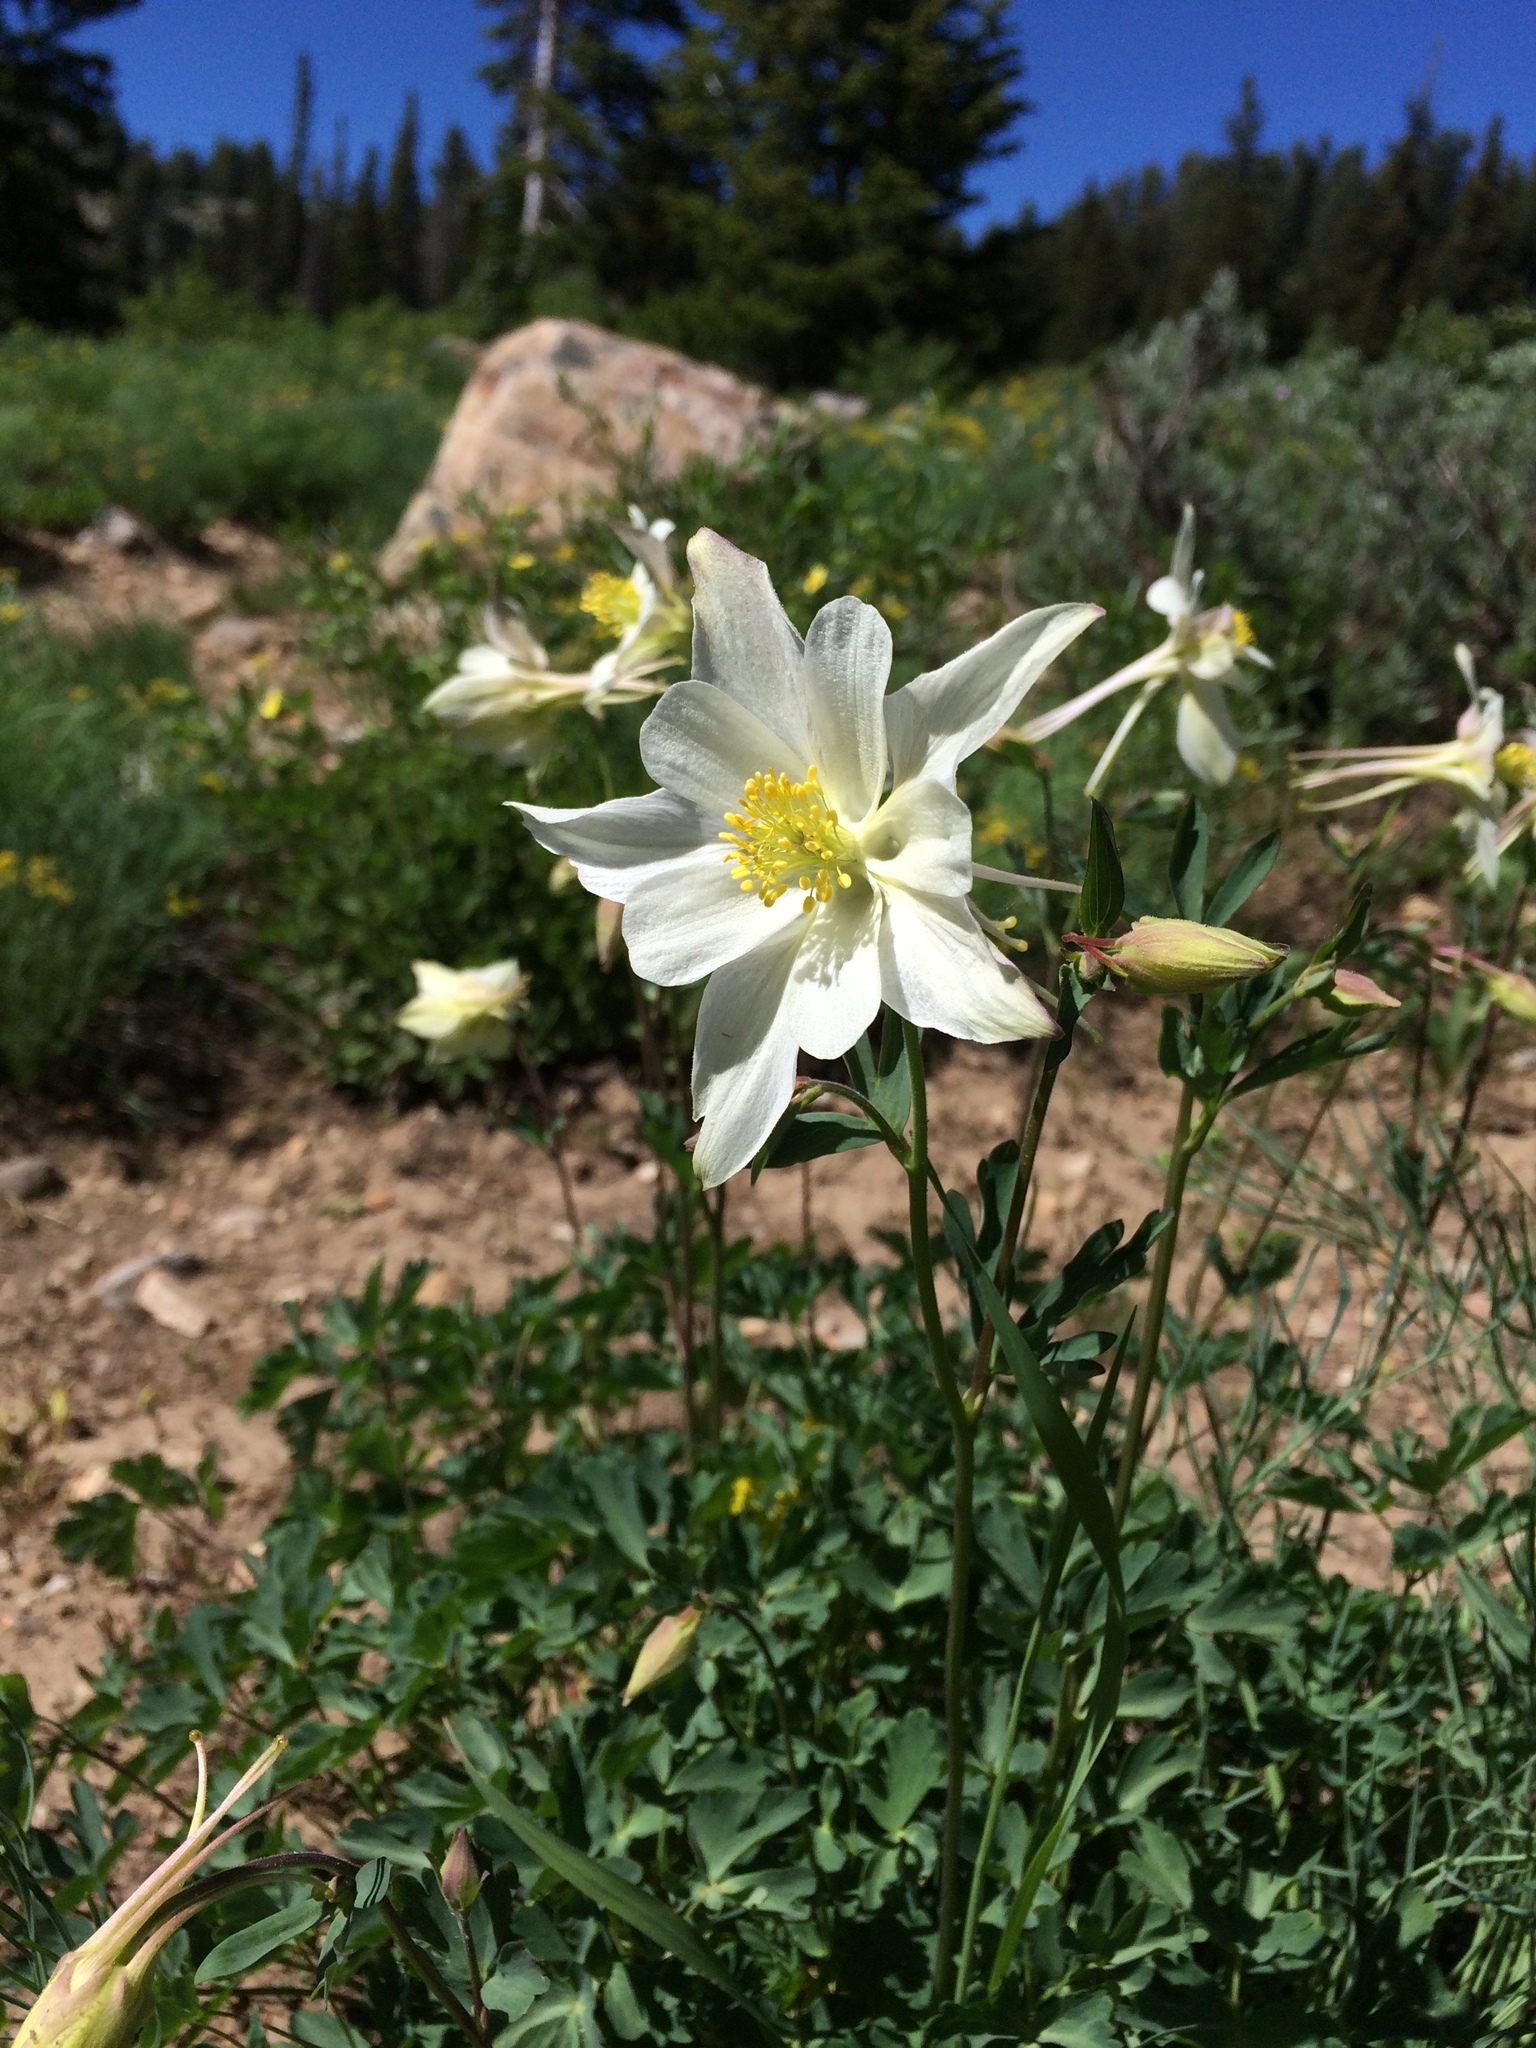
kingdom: Plantae
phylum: Tracheophyta
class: Magnoliopsida
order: Ranunculales
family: Ranunculaceae
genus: Aquilegia
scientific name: Aquilegia coerulea
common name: Rocky mountain columbine
